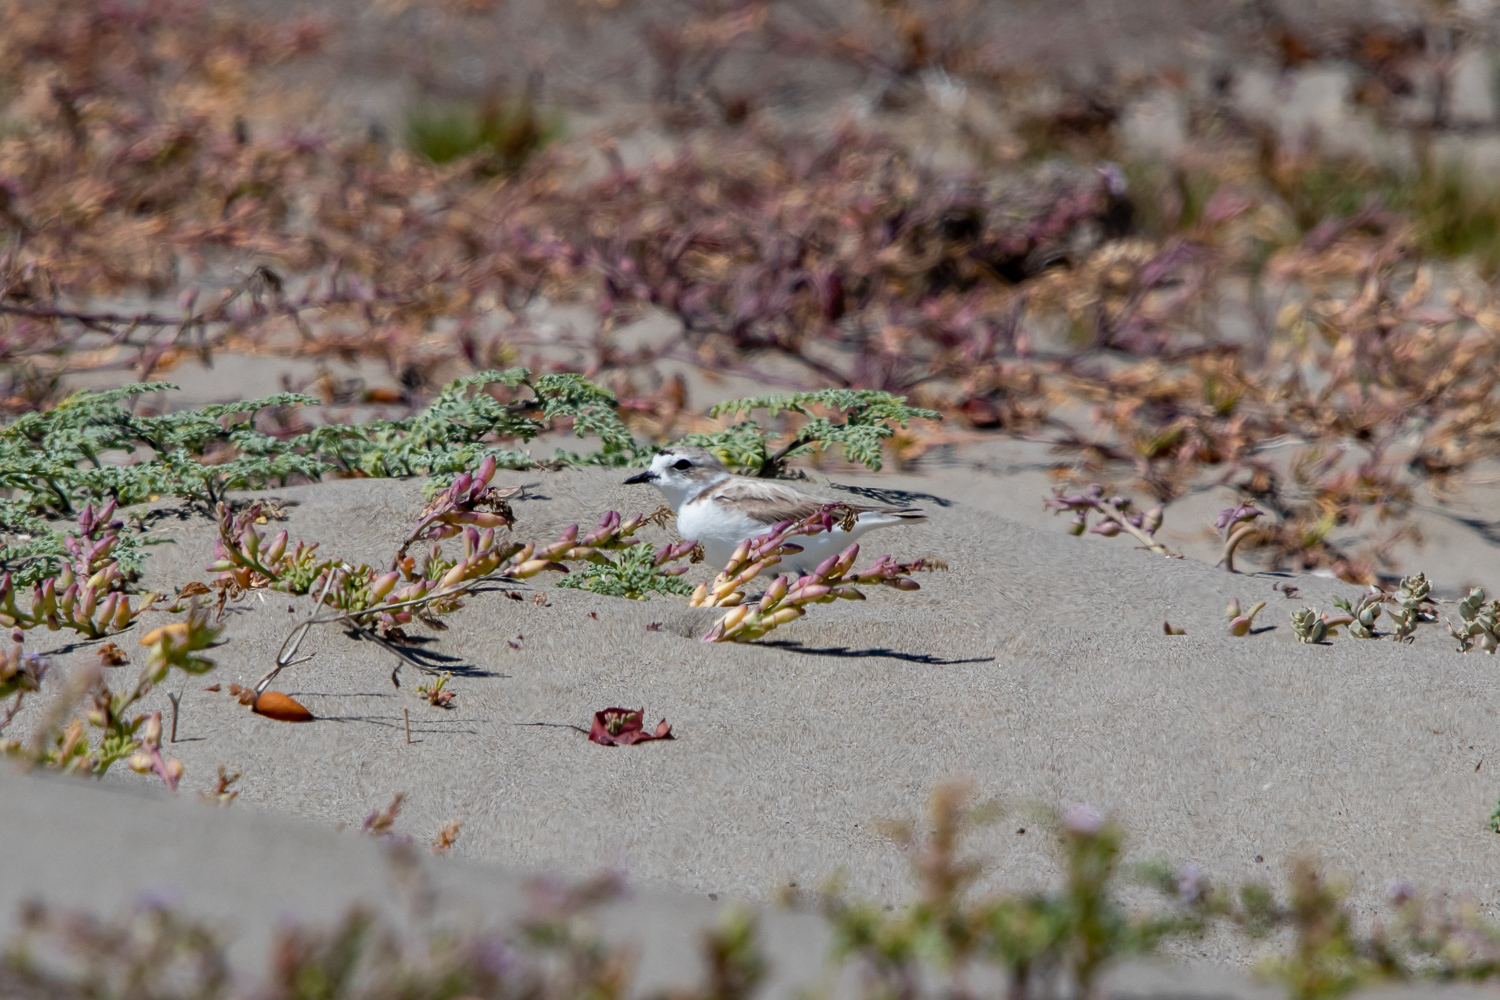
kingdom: Animalia
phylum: Chordata
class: Aves
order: Charadriiformes
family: Charadriidae
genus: Anarhynchus
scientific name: Anarhynchus
